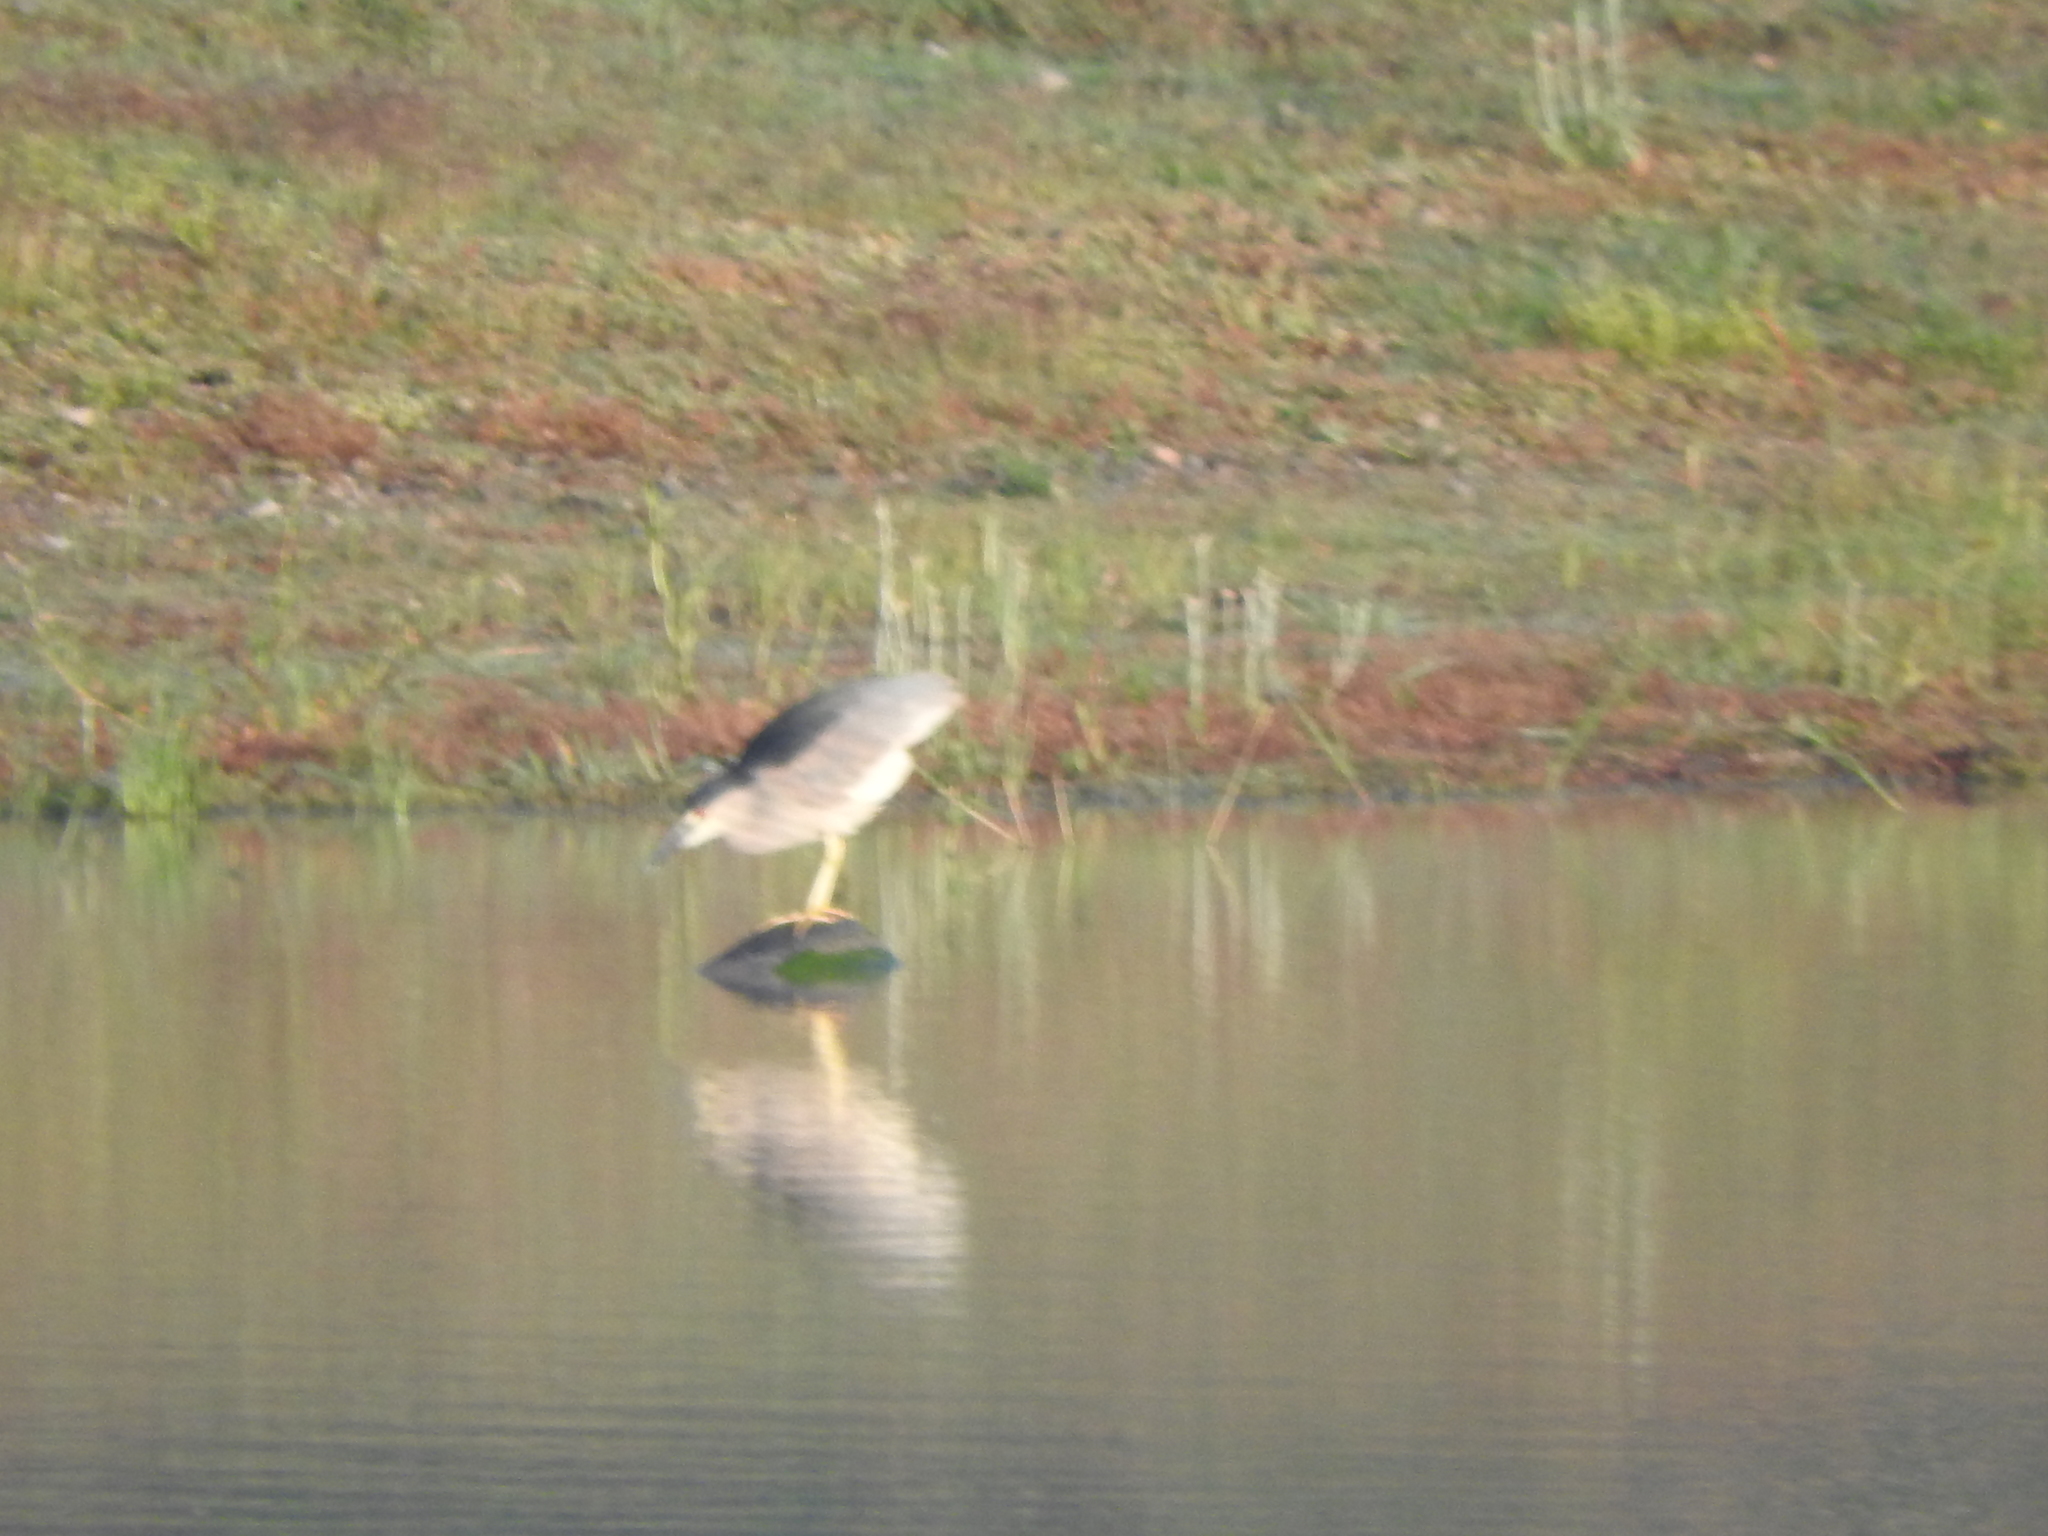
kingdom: Animalia
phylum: Chordata
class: Aves
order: Pelecaniformes
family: Ardeidae
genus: Nycticorax
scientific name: Nycticorax nycticorax
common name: Black-crowned night heron
